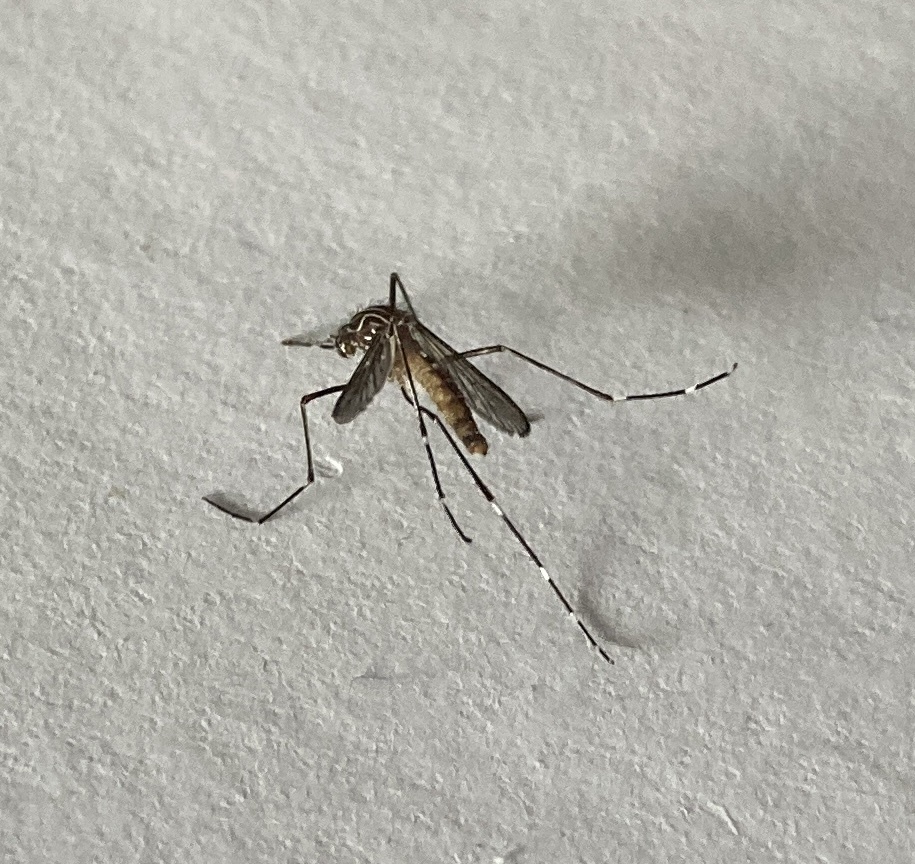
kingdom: Animalia
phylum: Arthropoda
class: Insecta
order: Diptera
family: Culicidae
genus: Aedes
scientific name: Aedes notoscriptus
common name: Australian backyard mosquito
